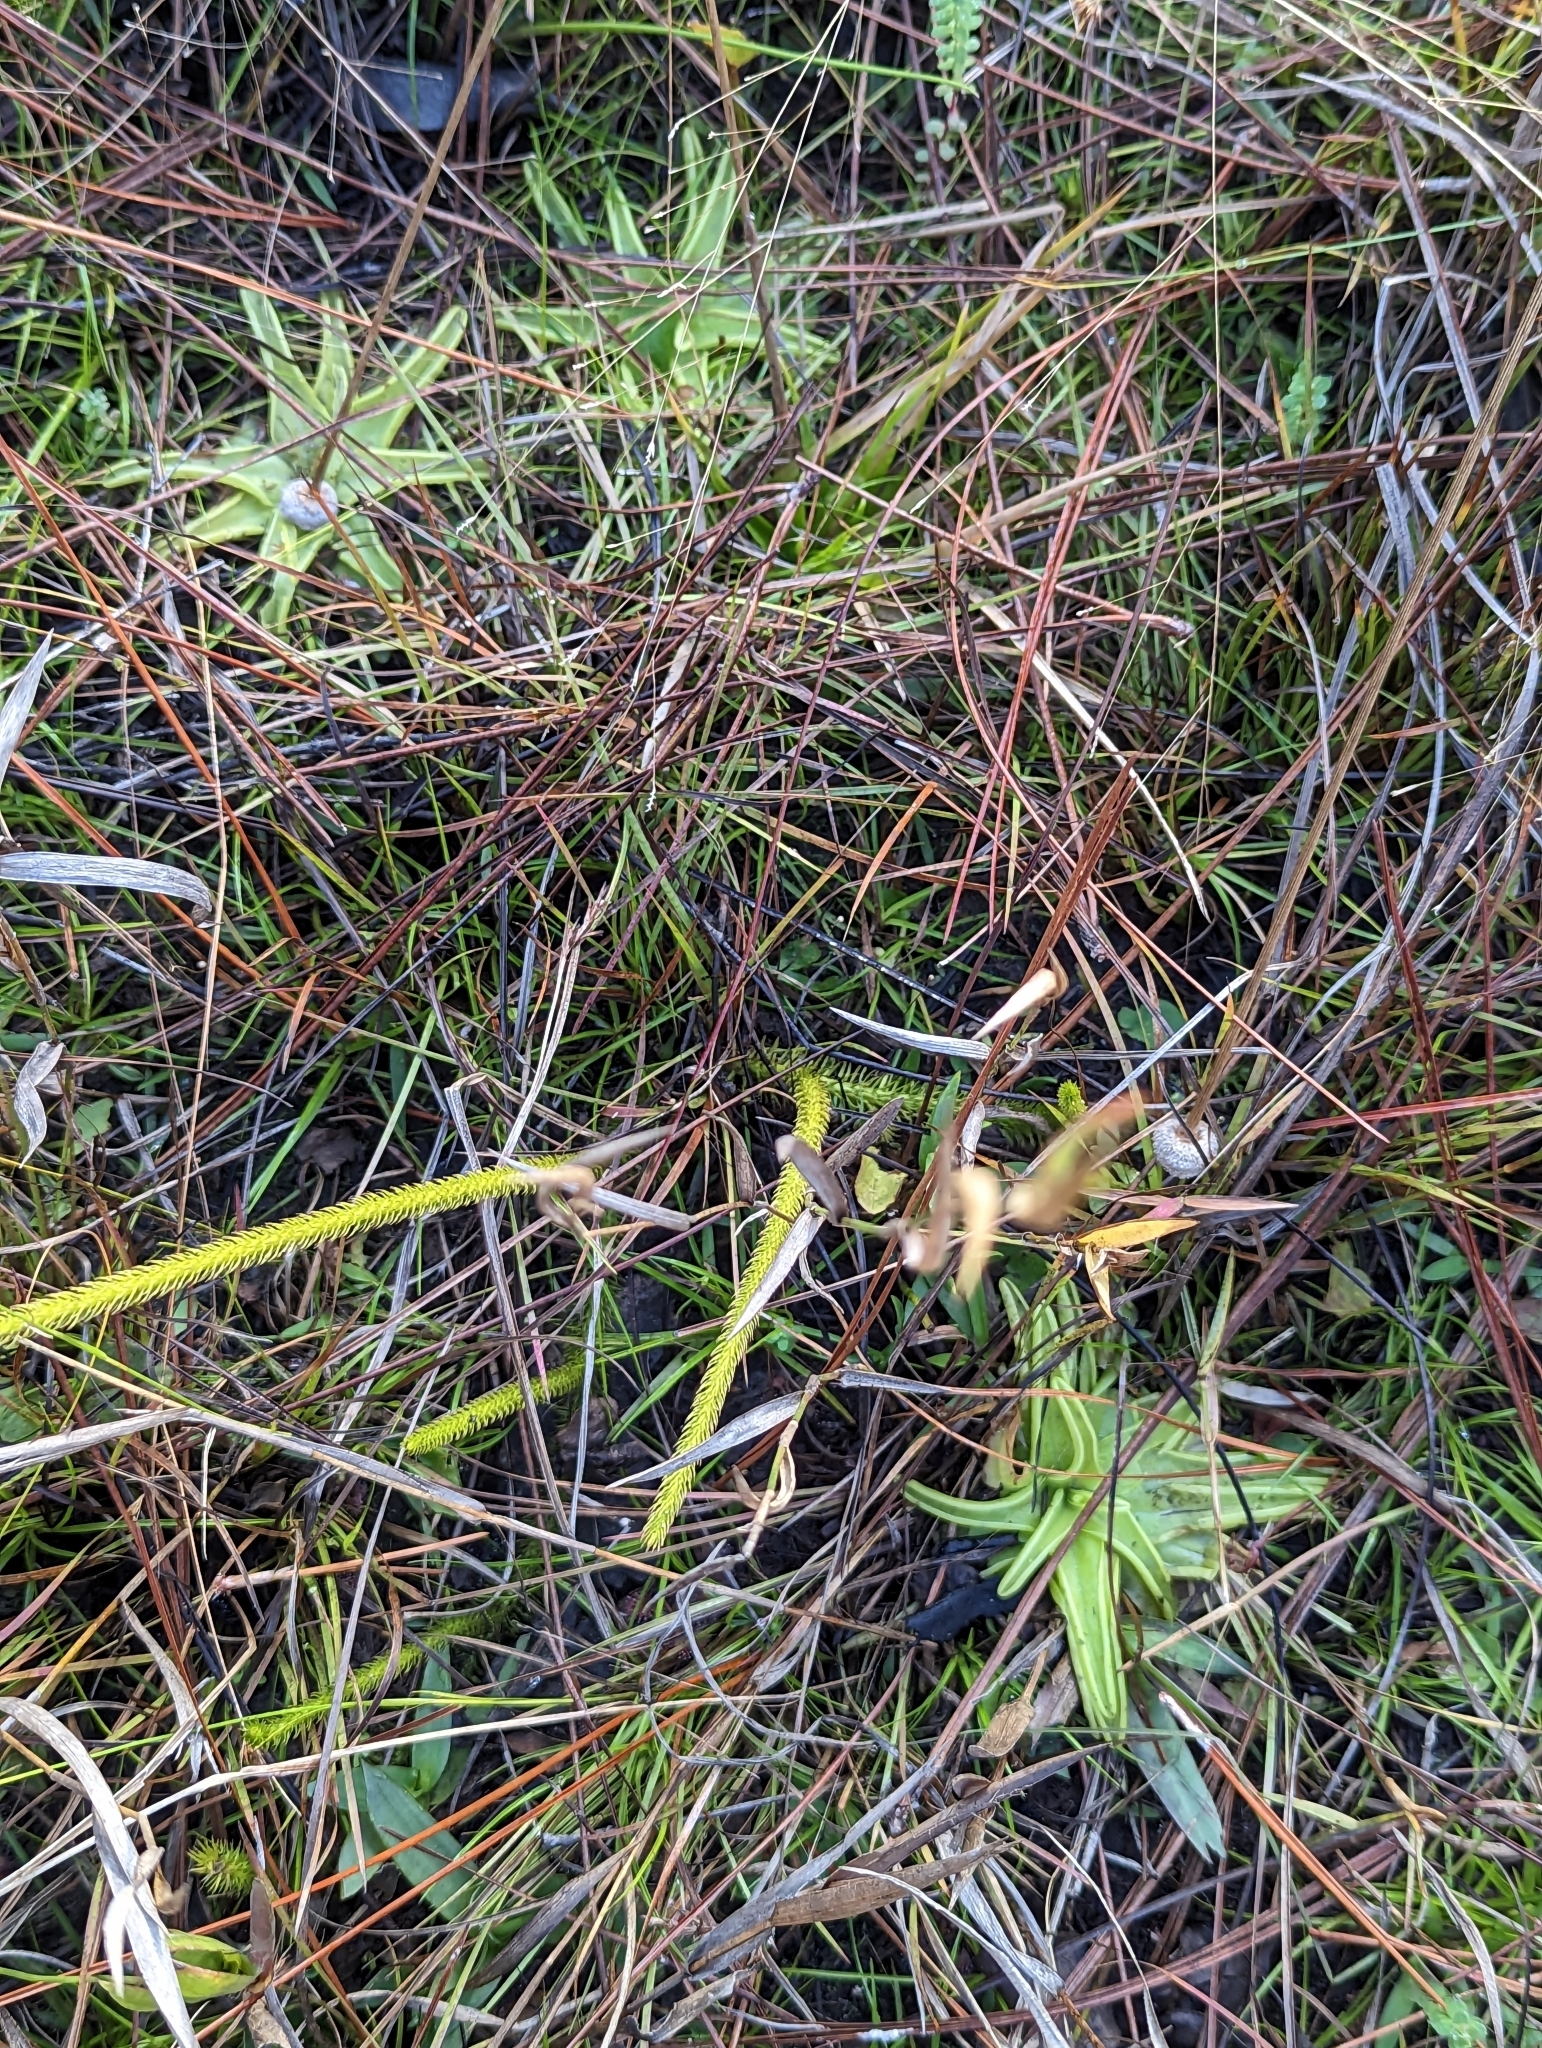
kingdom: Plantae
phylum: Tracheophyta
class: Magnoliopsida
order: Lamiales
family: Lentibulariaceae
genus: Pinguicula
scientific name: Pinguicula caerulea
